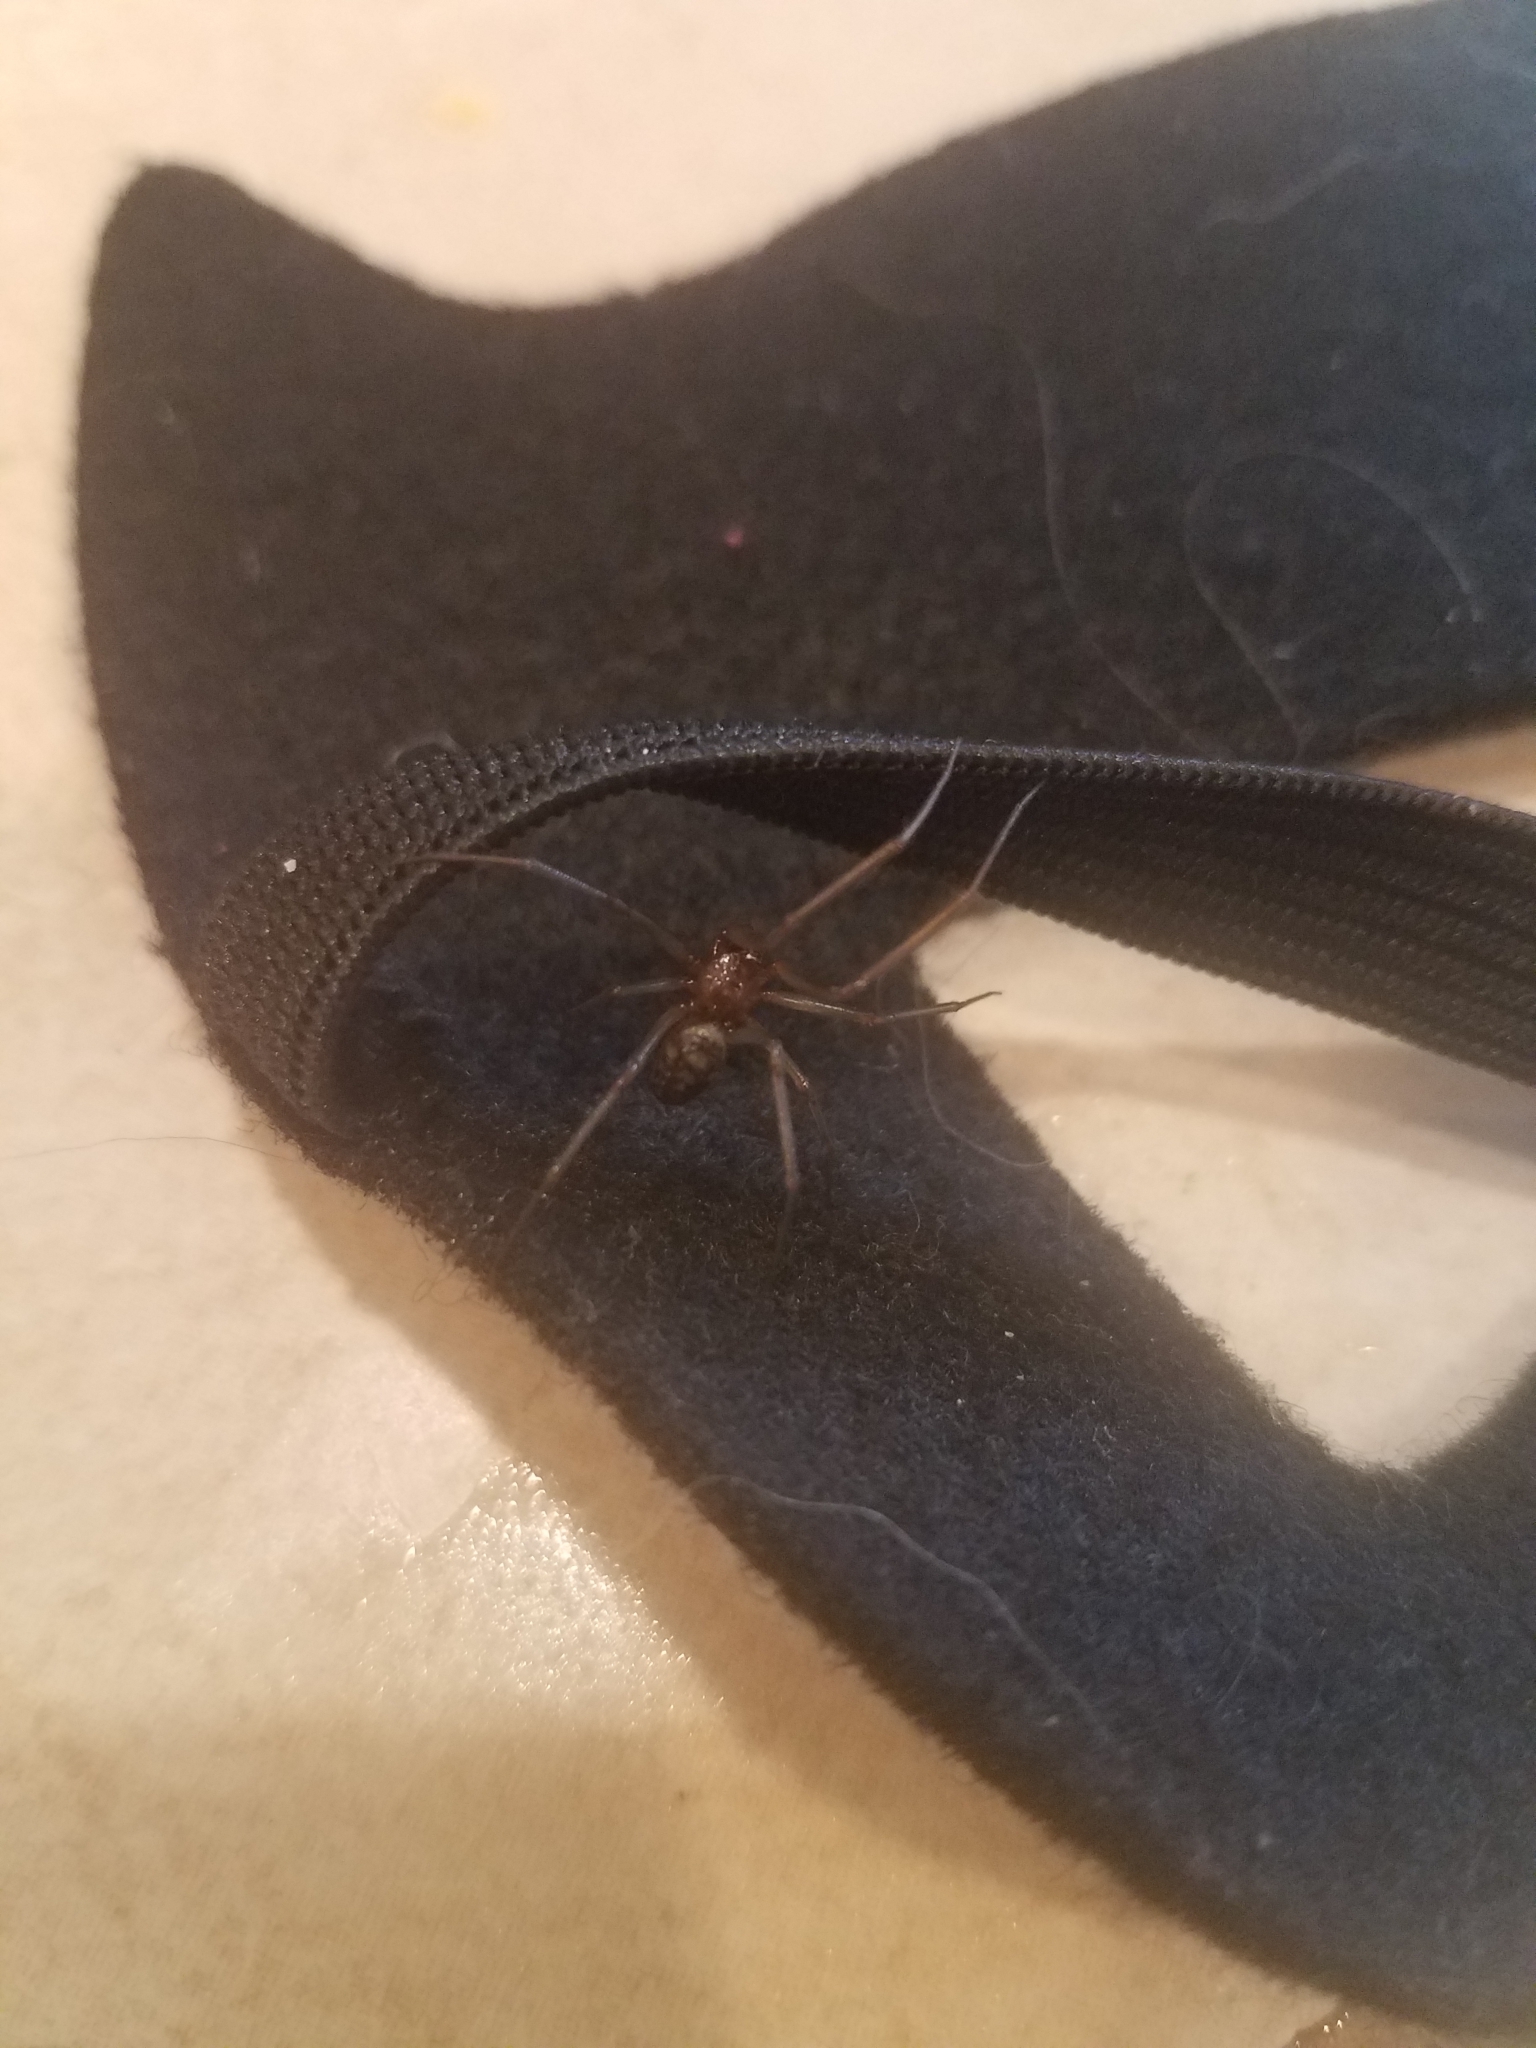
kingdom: Animalia
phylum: Arthropoda
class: Arachnida
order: Araneae
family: Theridiidae
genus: Steatoda
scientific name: Steatoda triangulosa
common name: Triangulate bud spider
